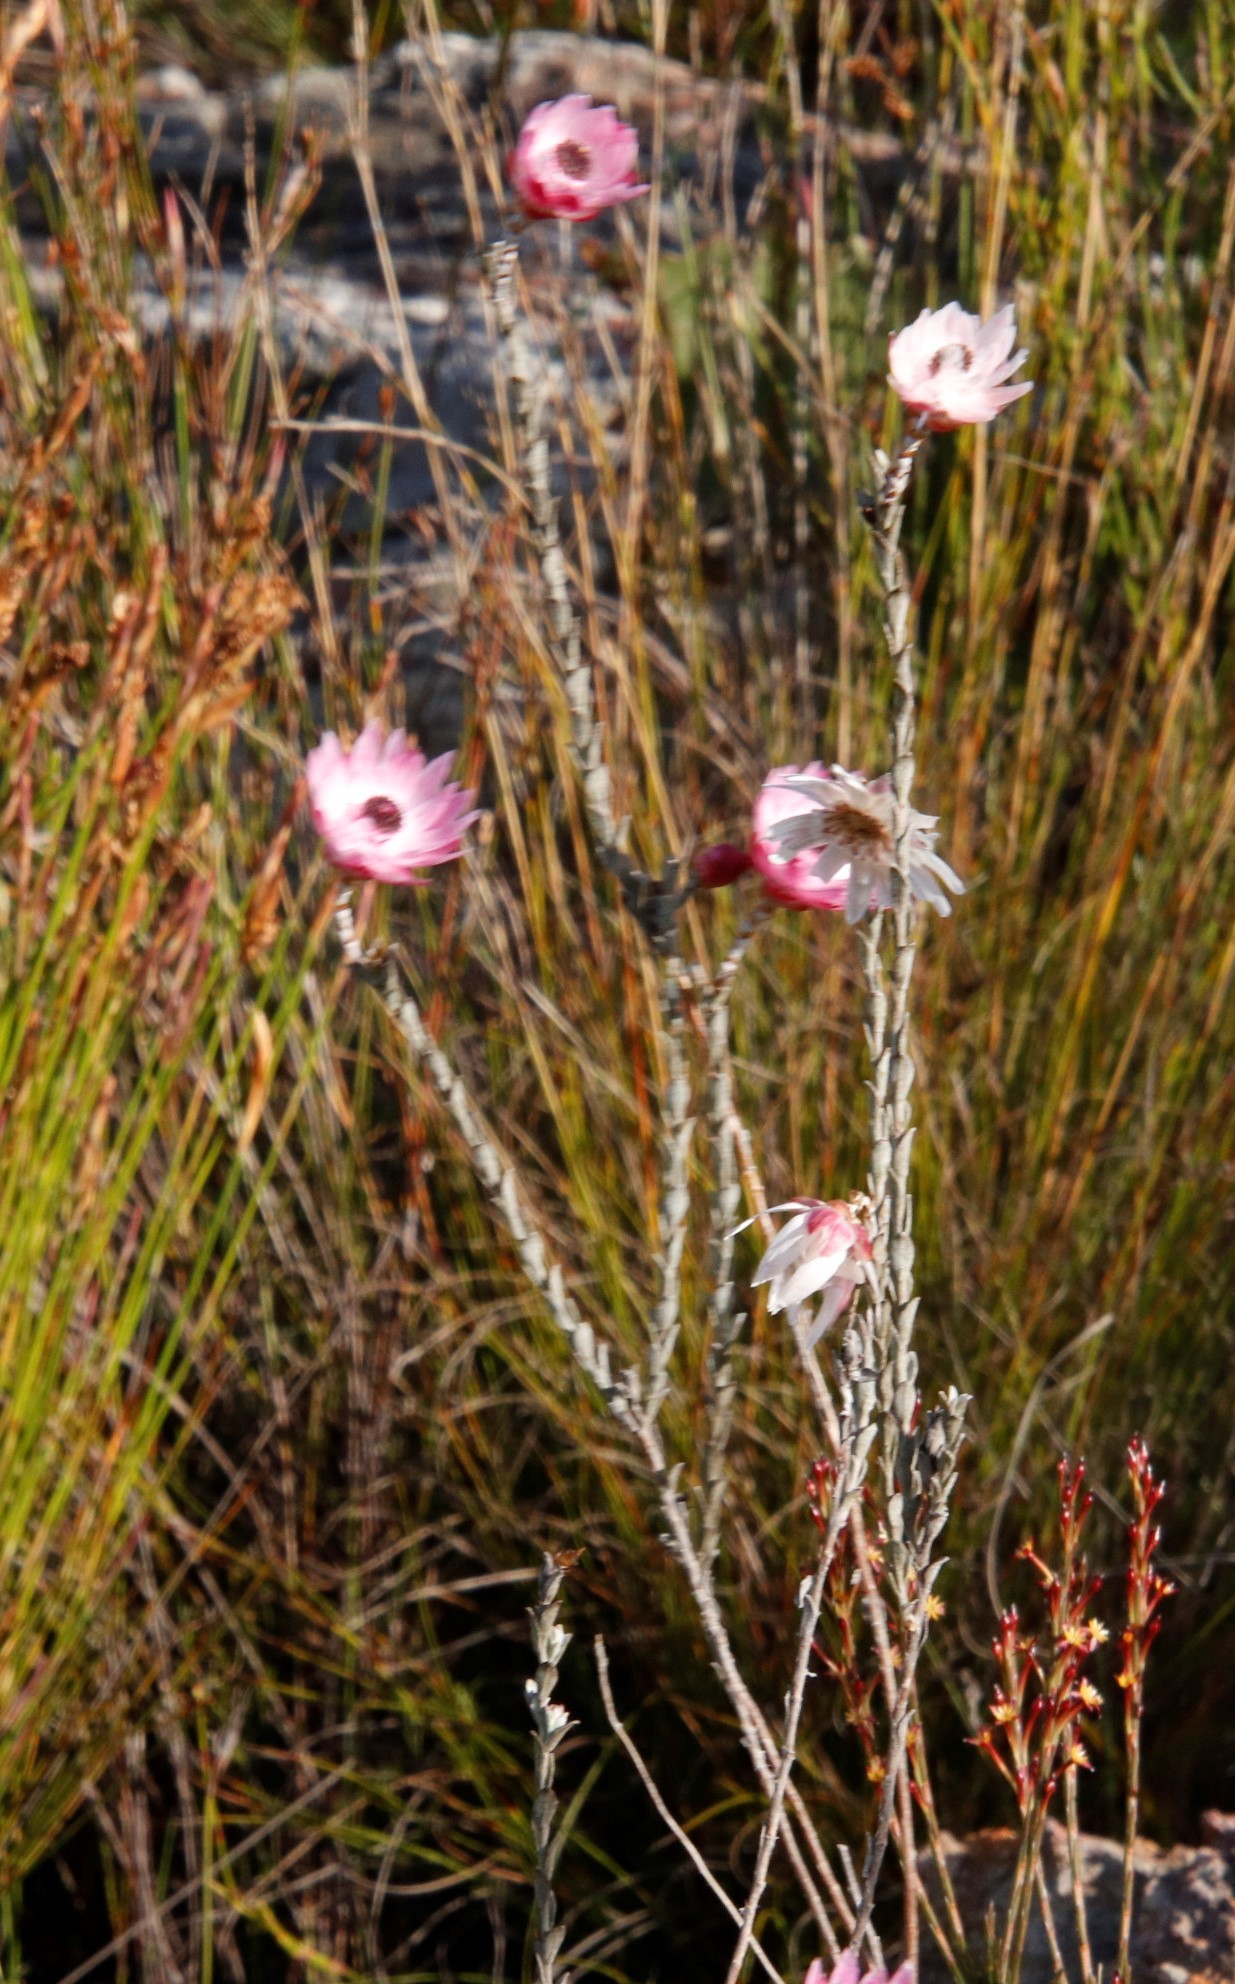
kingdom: Plantae
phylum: Tracheophyta
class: Magnoliopsida
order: Asterales
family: Asteraceae
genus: Syncarpha
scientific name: Syncarpha canescens
